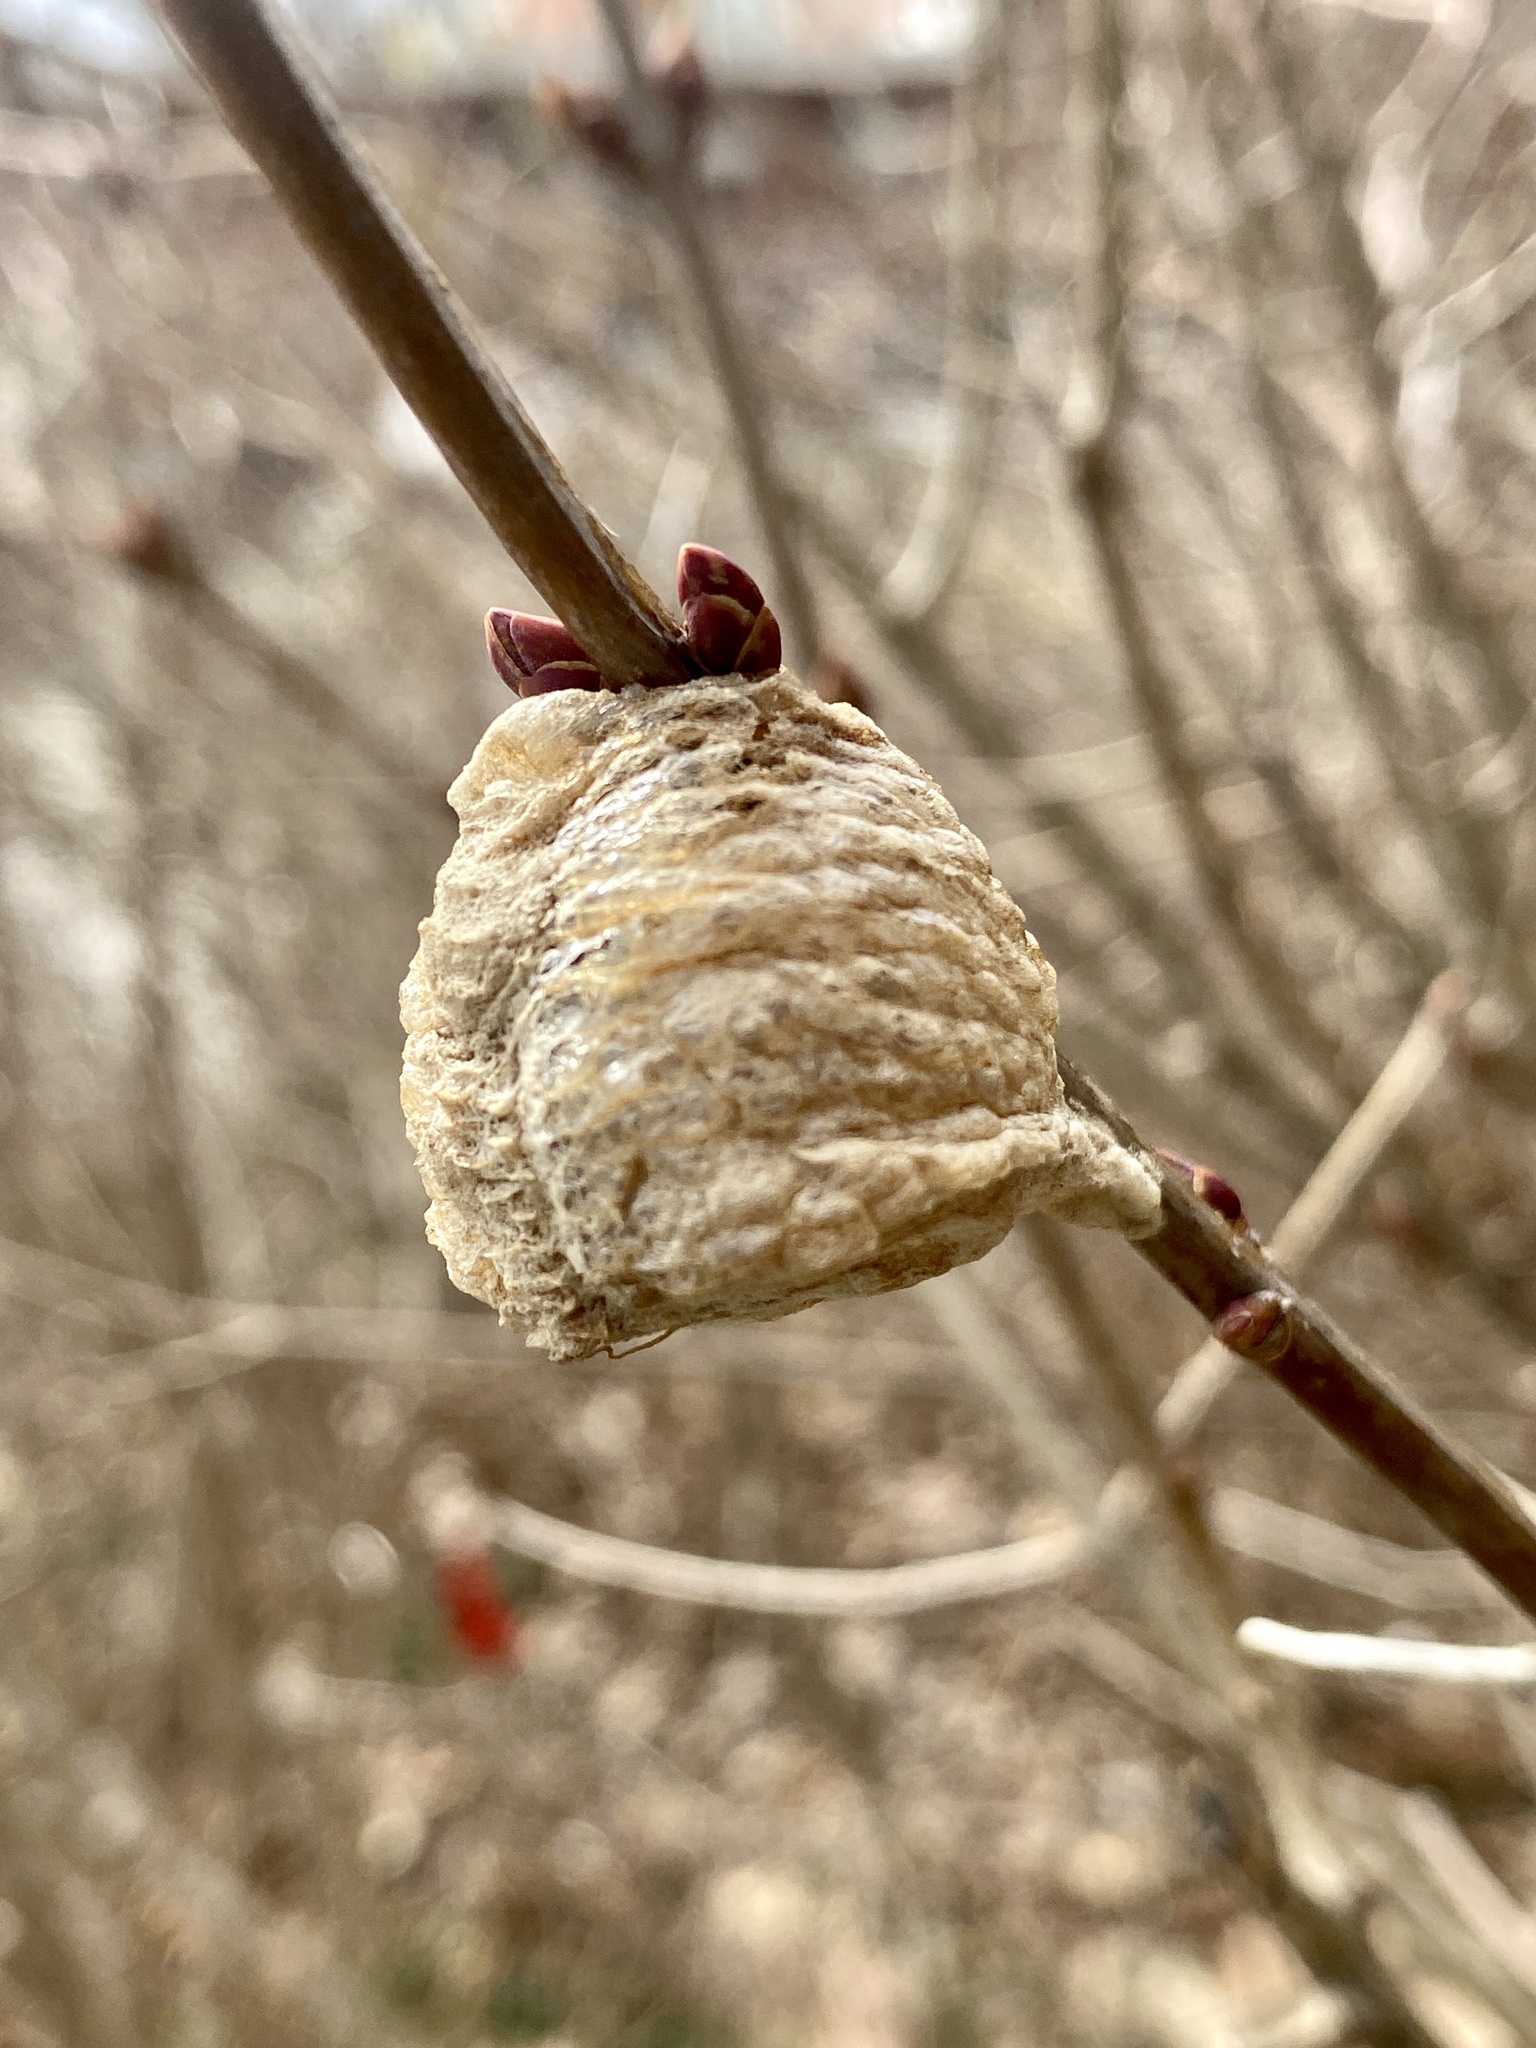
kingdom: Animalia
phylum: Arthropoda
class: Insecta
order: Mantodea
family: Mantidae
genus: Tenodera
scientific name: Tenodera sinensis
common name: Chinese mantis
